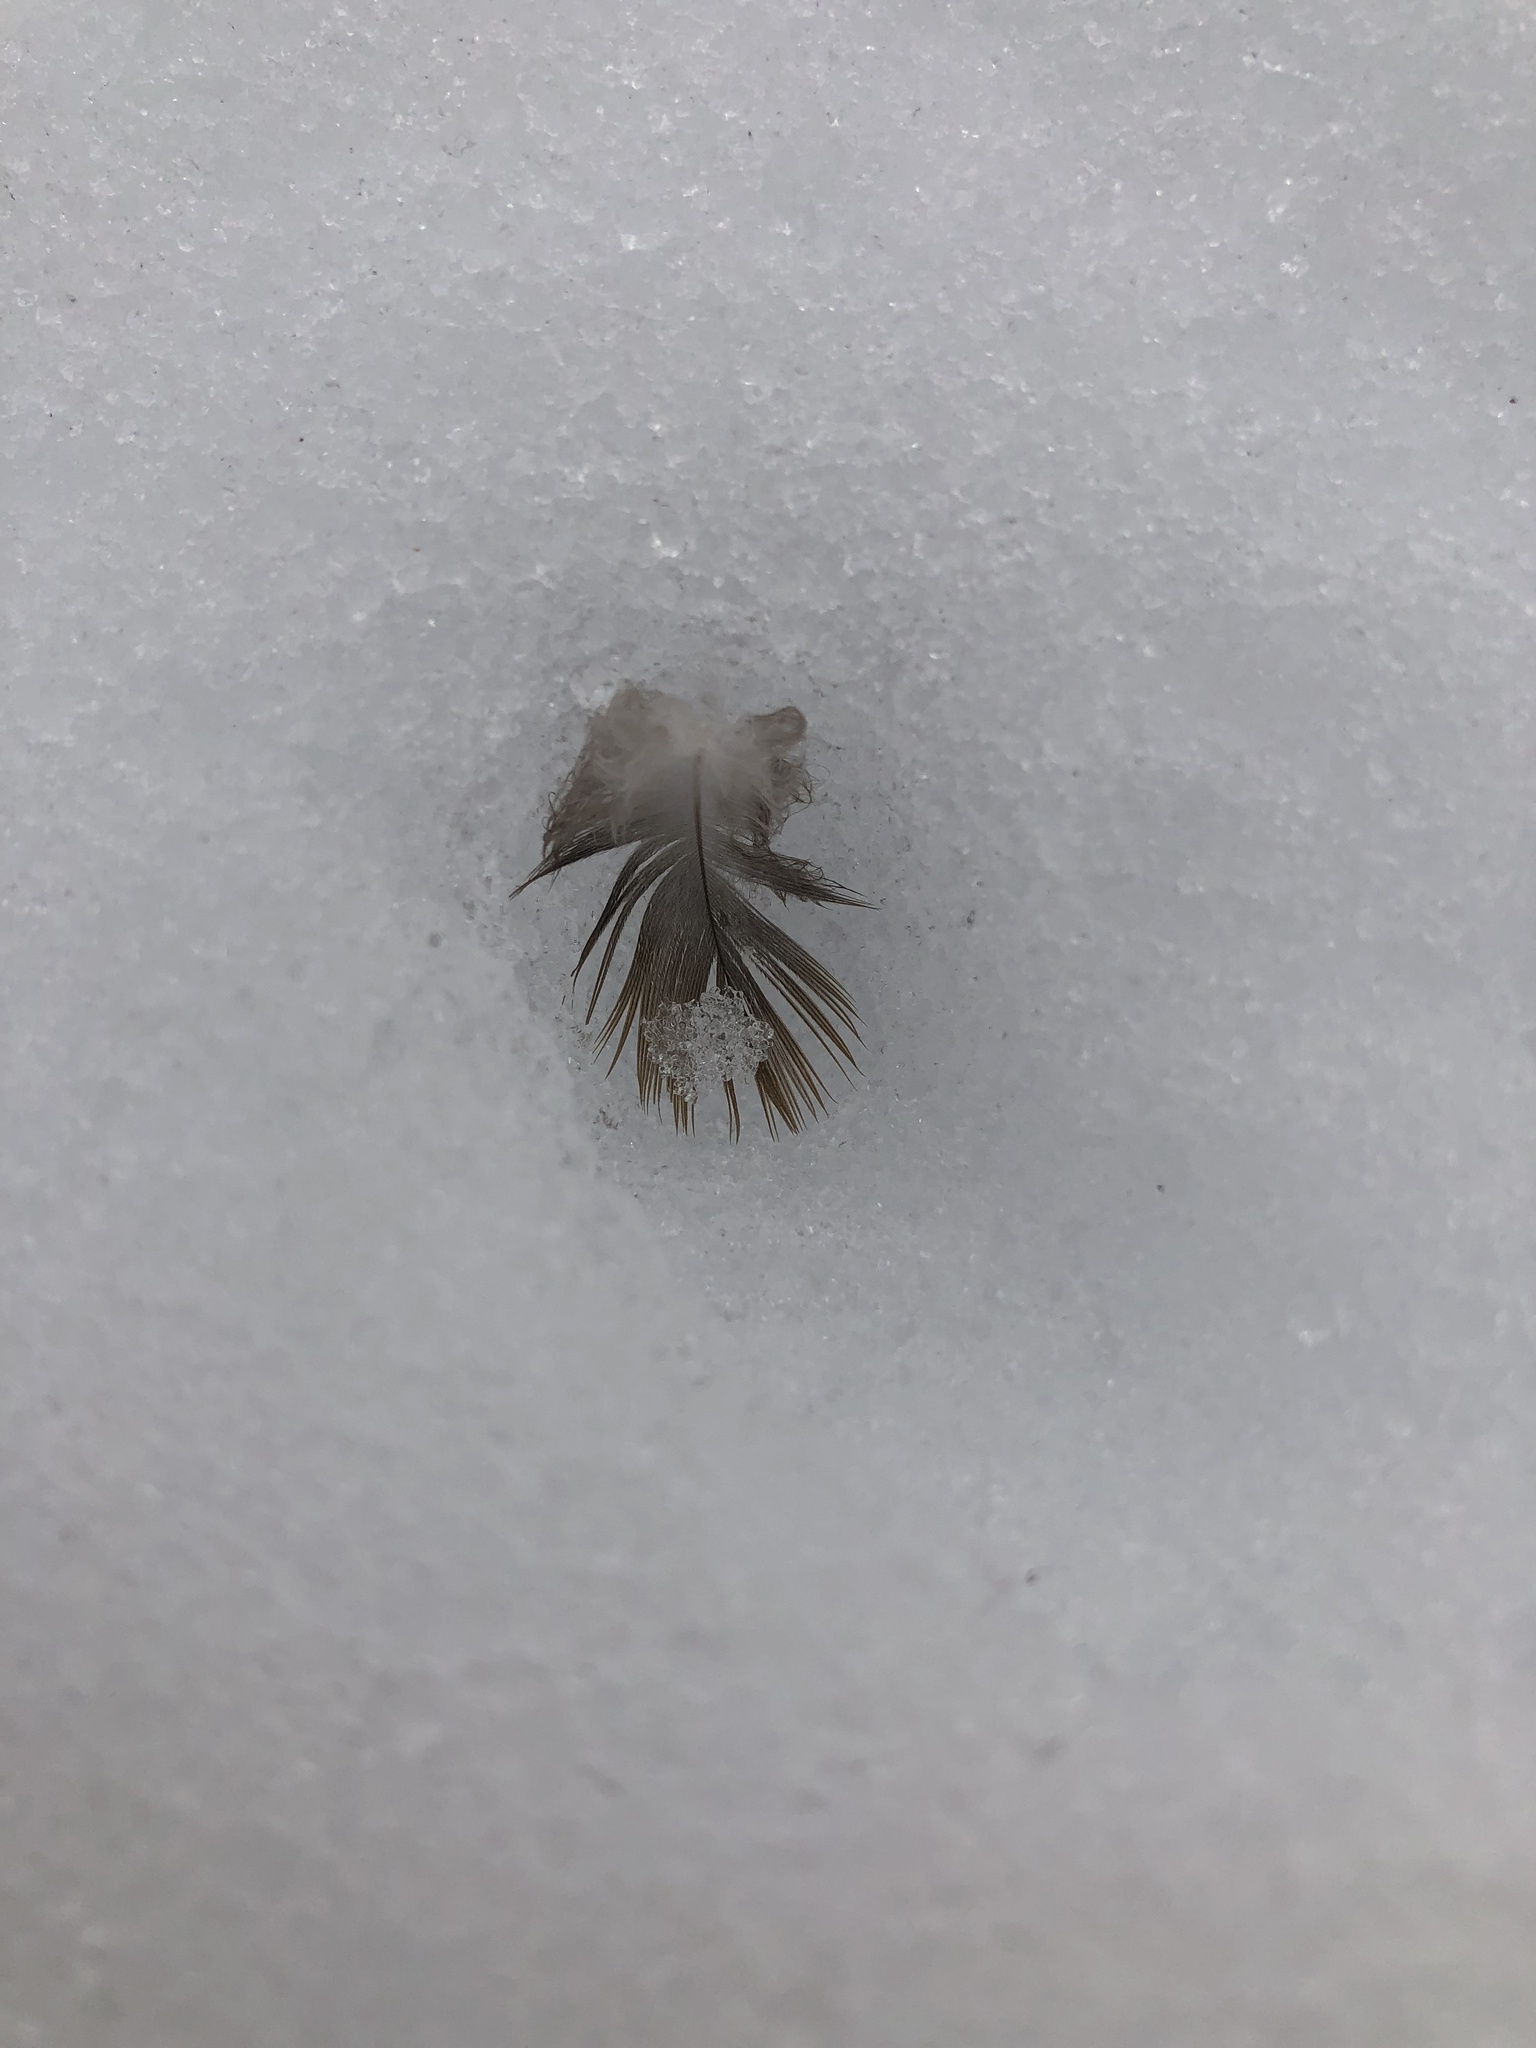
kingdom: Animalia
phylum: Chordata
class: Aves
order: Columbiformes
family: Columbidae
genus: Zenaida
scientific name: Zenaida macroura
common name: Mourning dove
